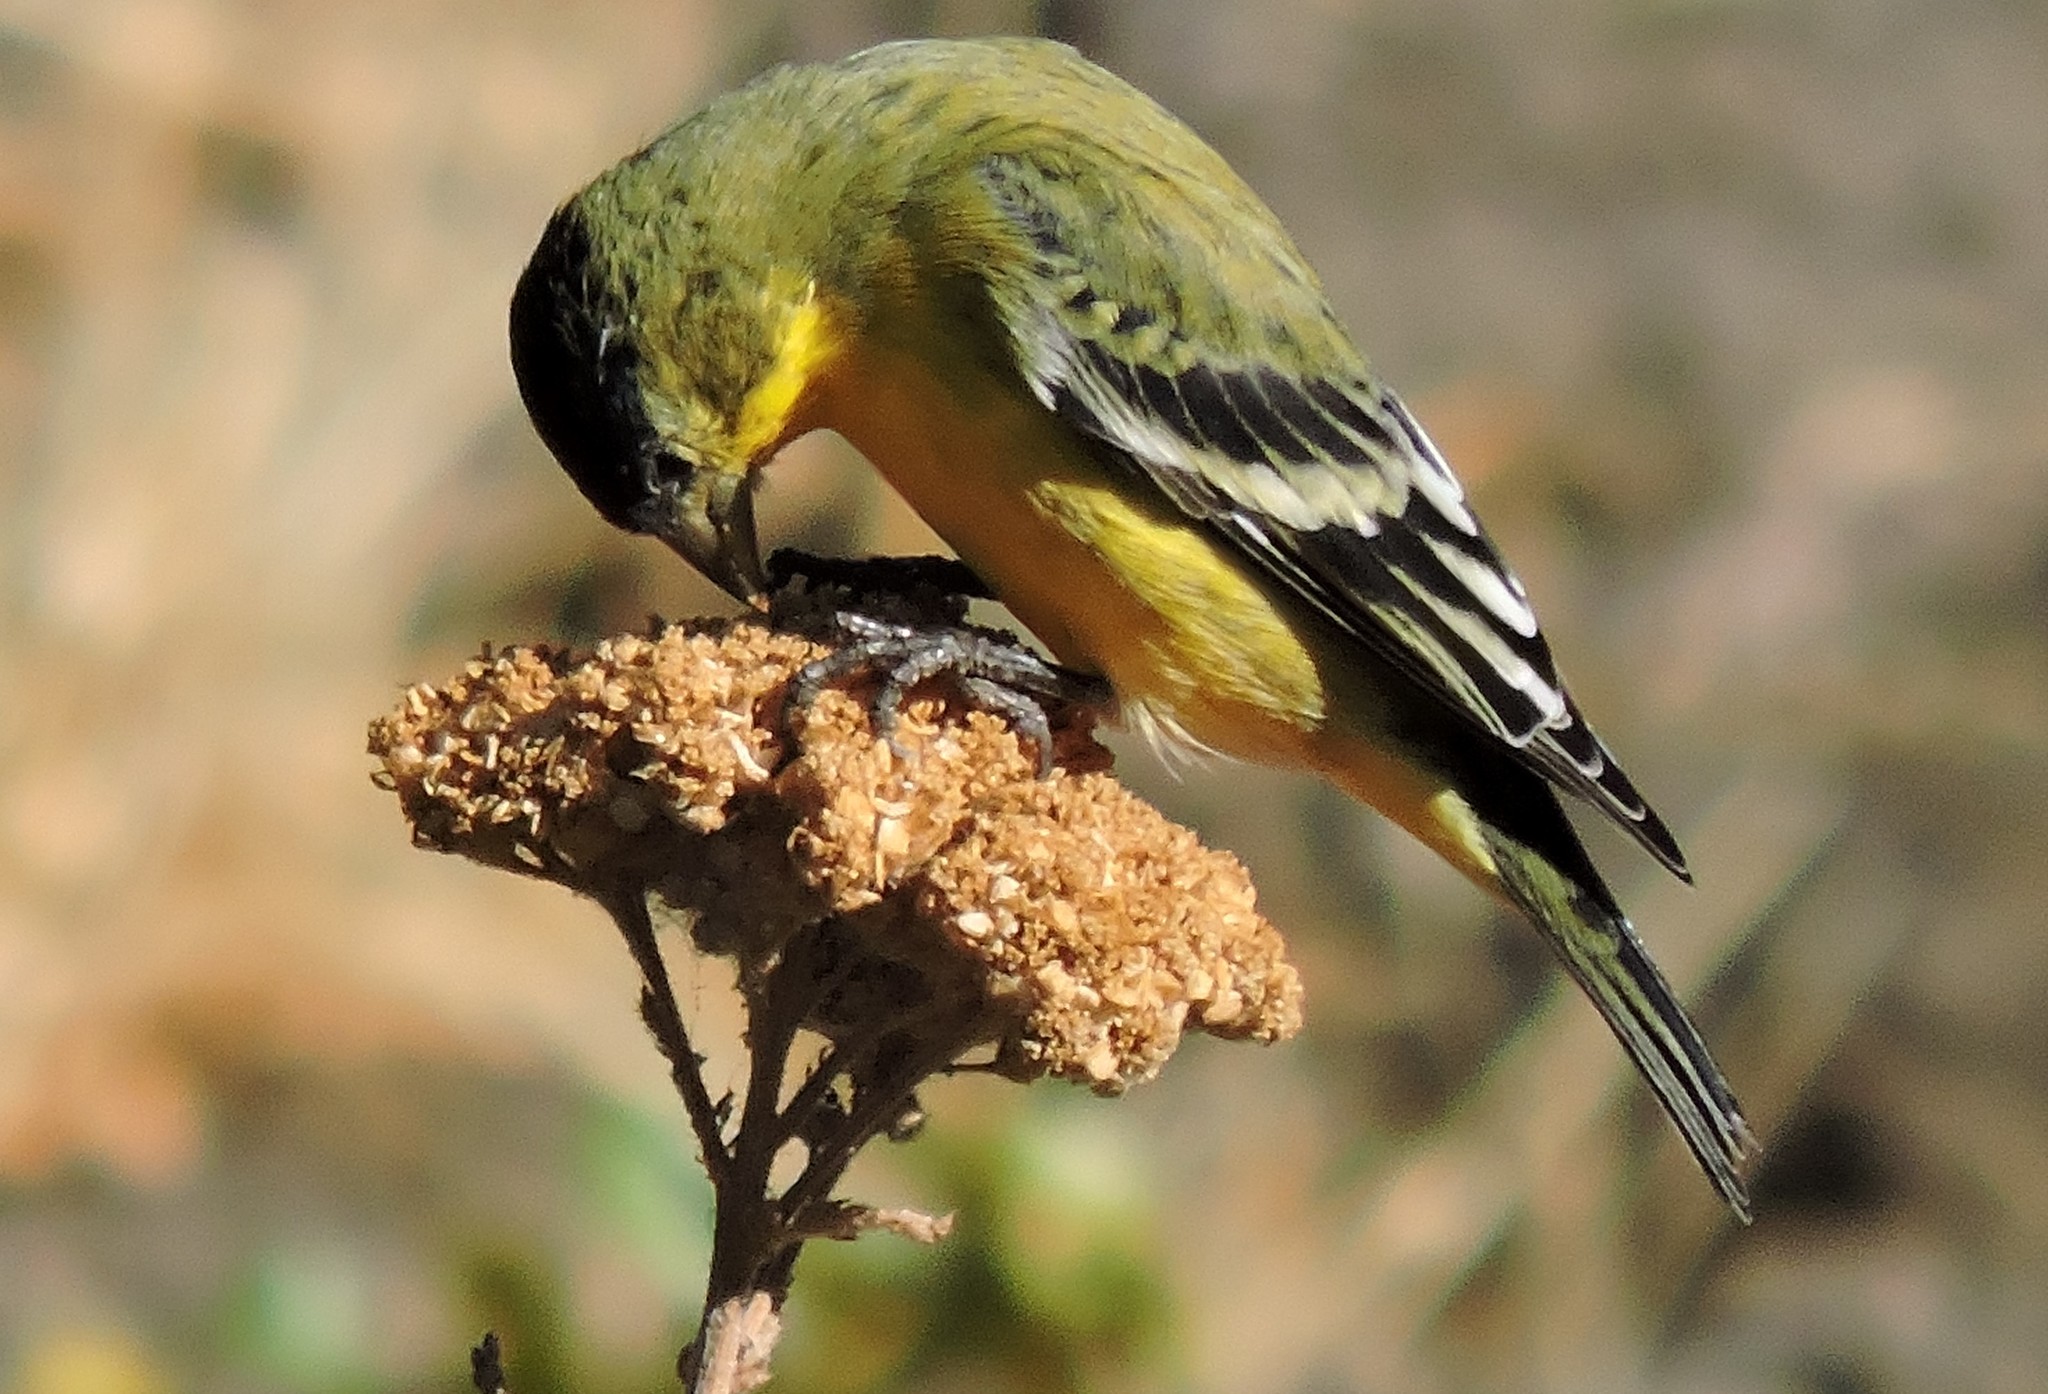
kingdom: Animalia
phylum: Chordata
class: Aves
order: Passeriformes
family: Fringillidae
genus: Spinus
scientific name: Spinus psaltria
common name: Lesser goldfinch
